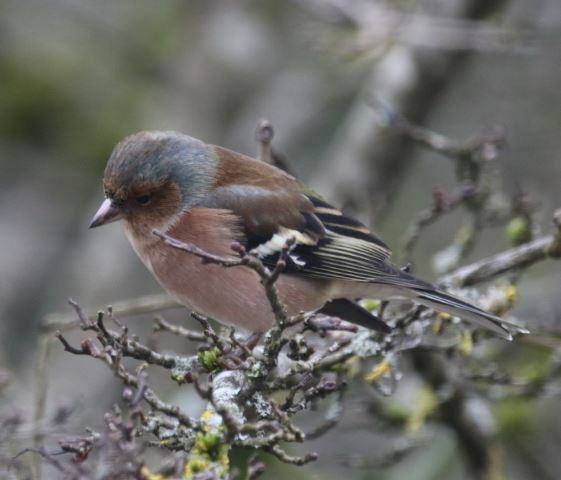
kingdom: Animalia
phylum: Chordata
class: Aves
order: Passeriformes
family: Fringillidae
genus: Fringilla
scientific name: Fringilla coelebs
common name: Common chaffinch
